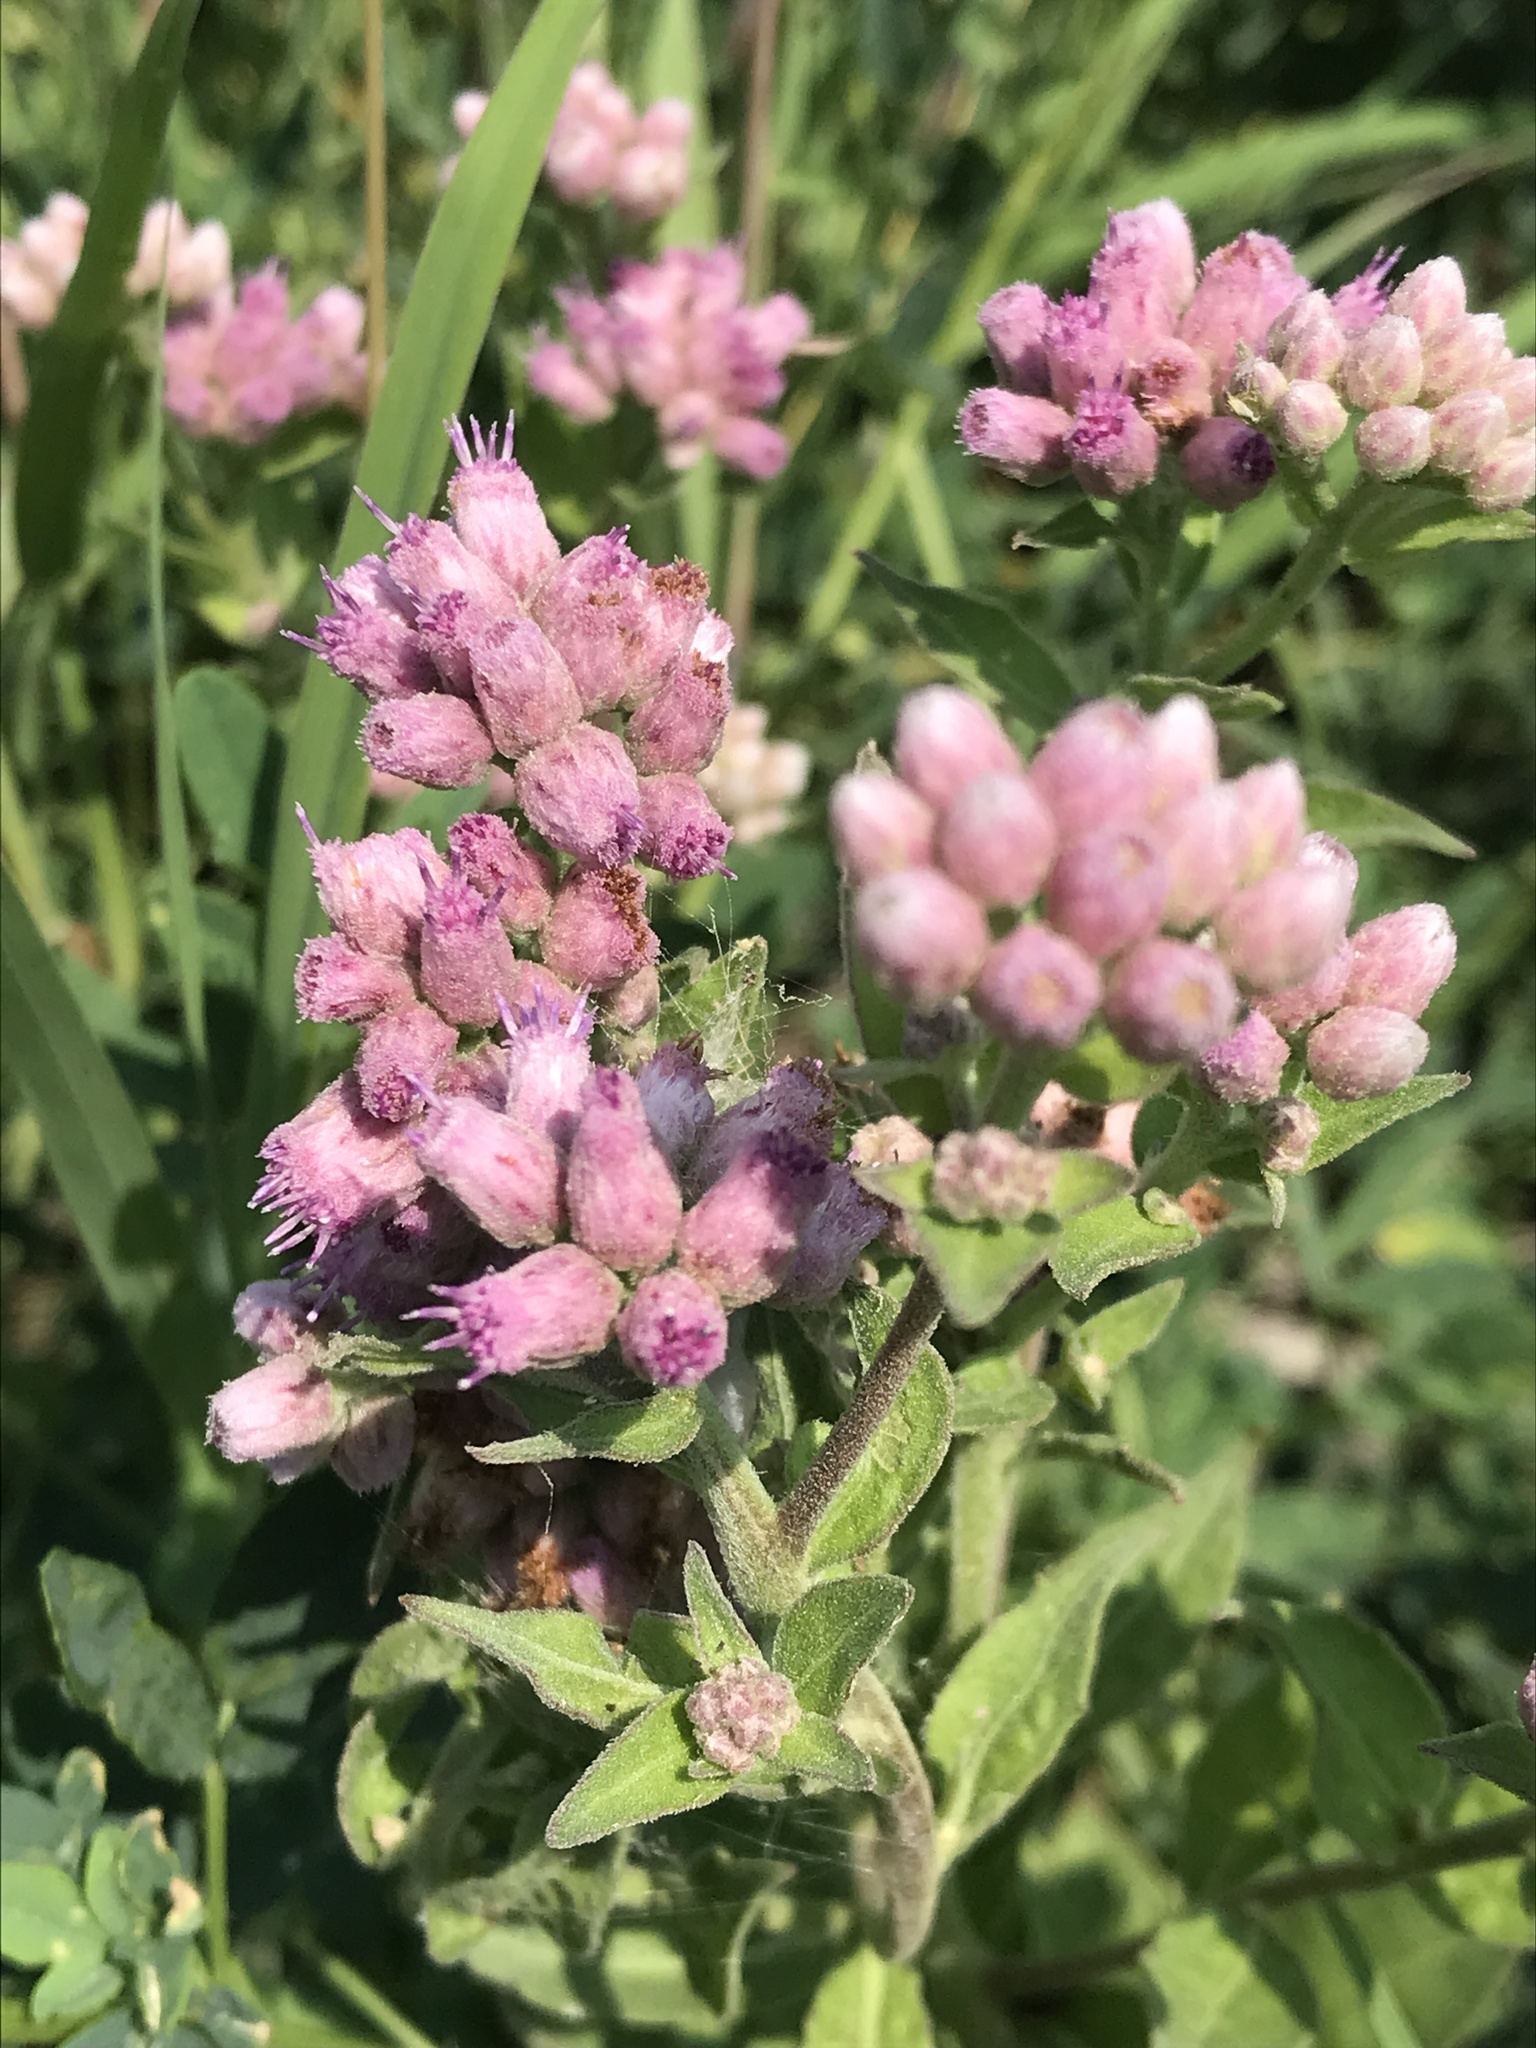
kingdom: Plantae
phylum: Tracheophyta
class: Magnoliopsida
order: Asterales
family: Asteraceae
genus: Pluchea
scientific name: Pluchea odorata
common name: Saltmarsh fleabane
